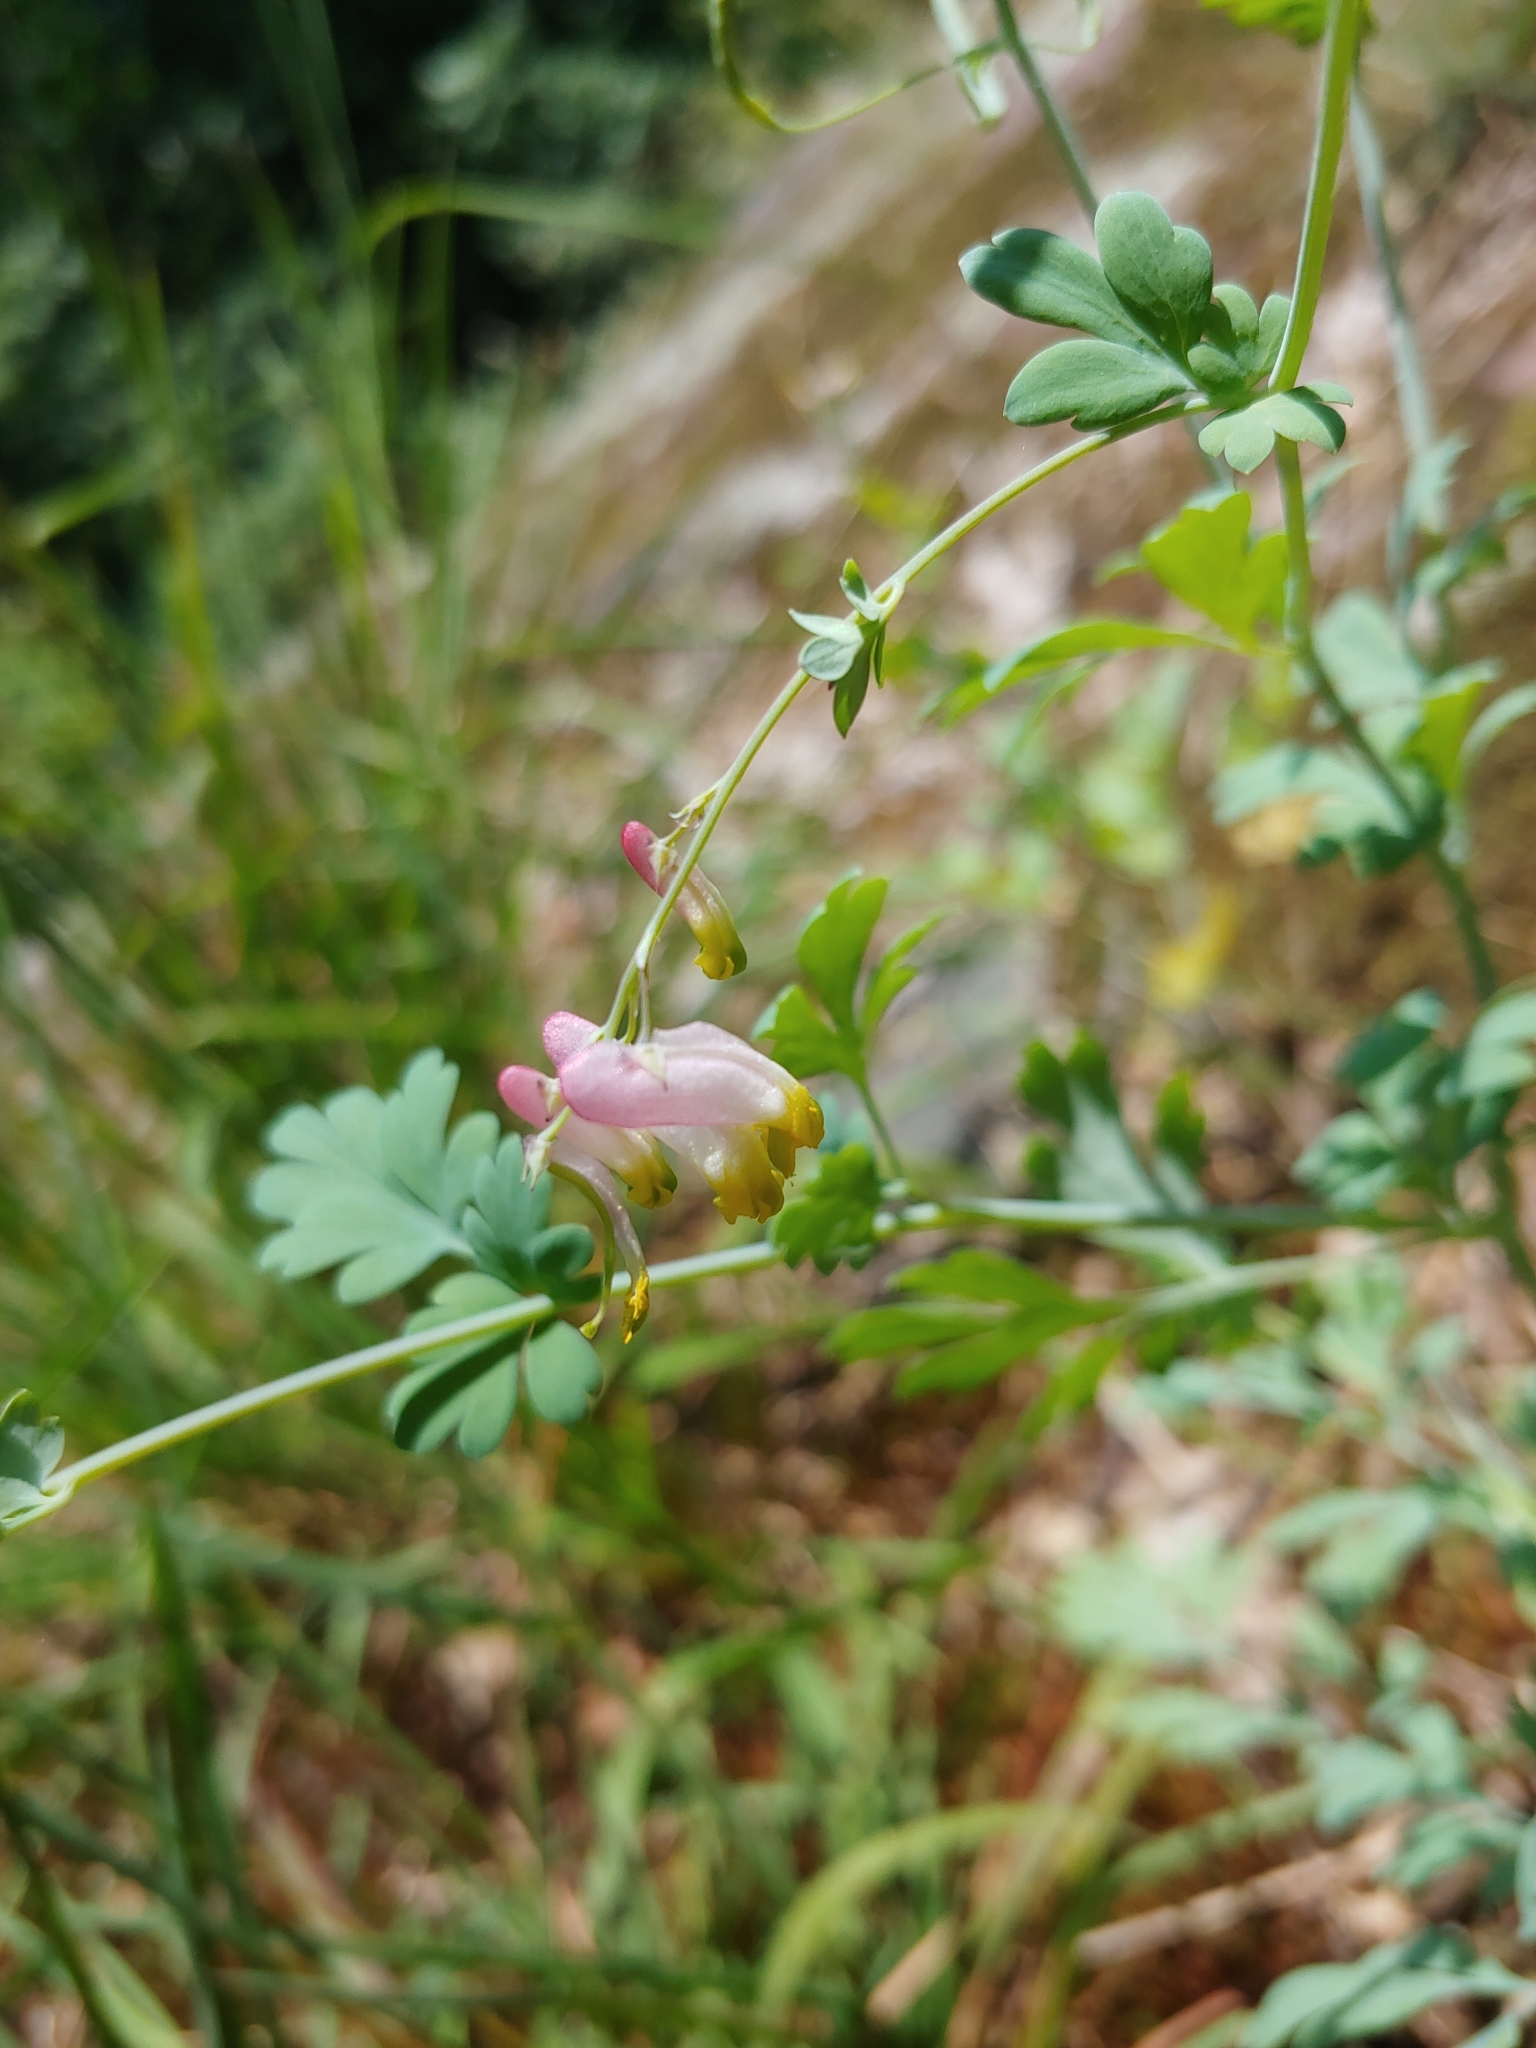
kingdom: Plantae
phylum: Tracheophyta
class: Magnoliopsida
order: Ranunculales
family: Papaveraceae
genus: Capnoides
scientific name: Capnoides sempervirens
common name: Rock harlequin
